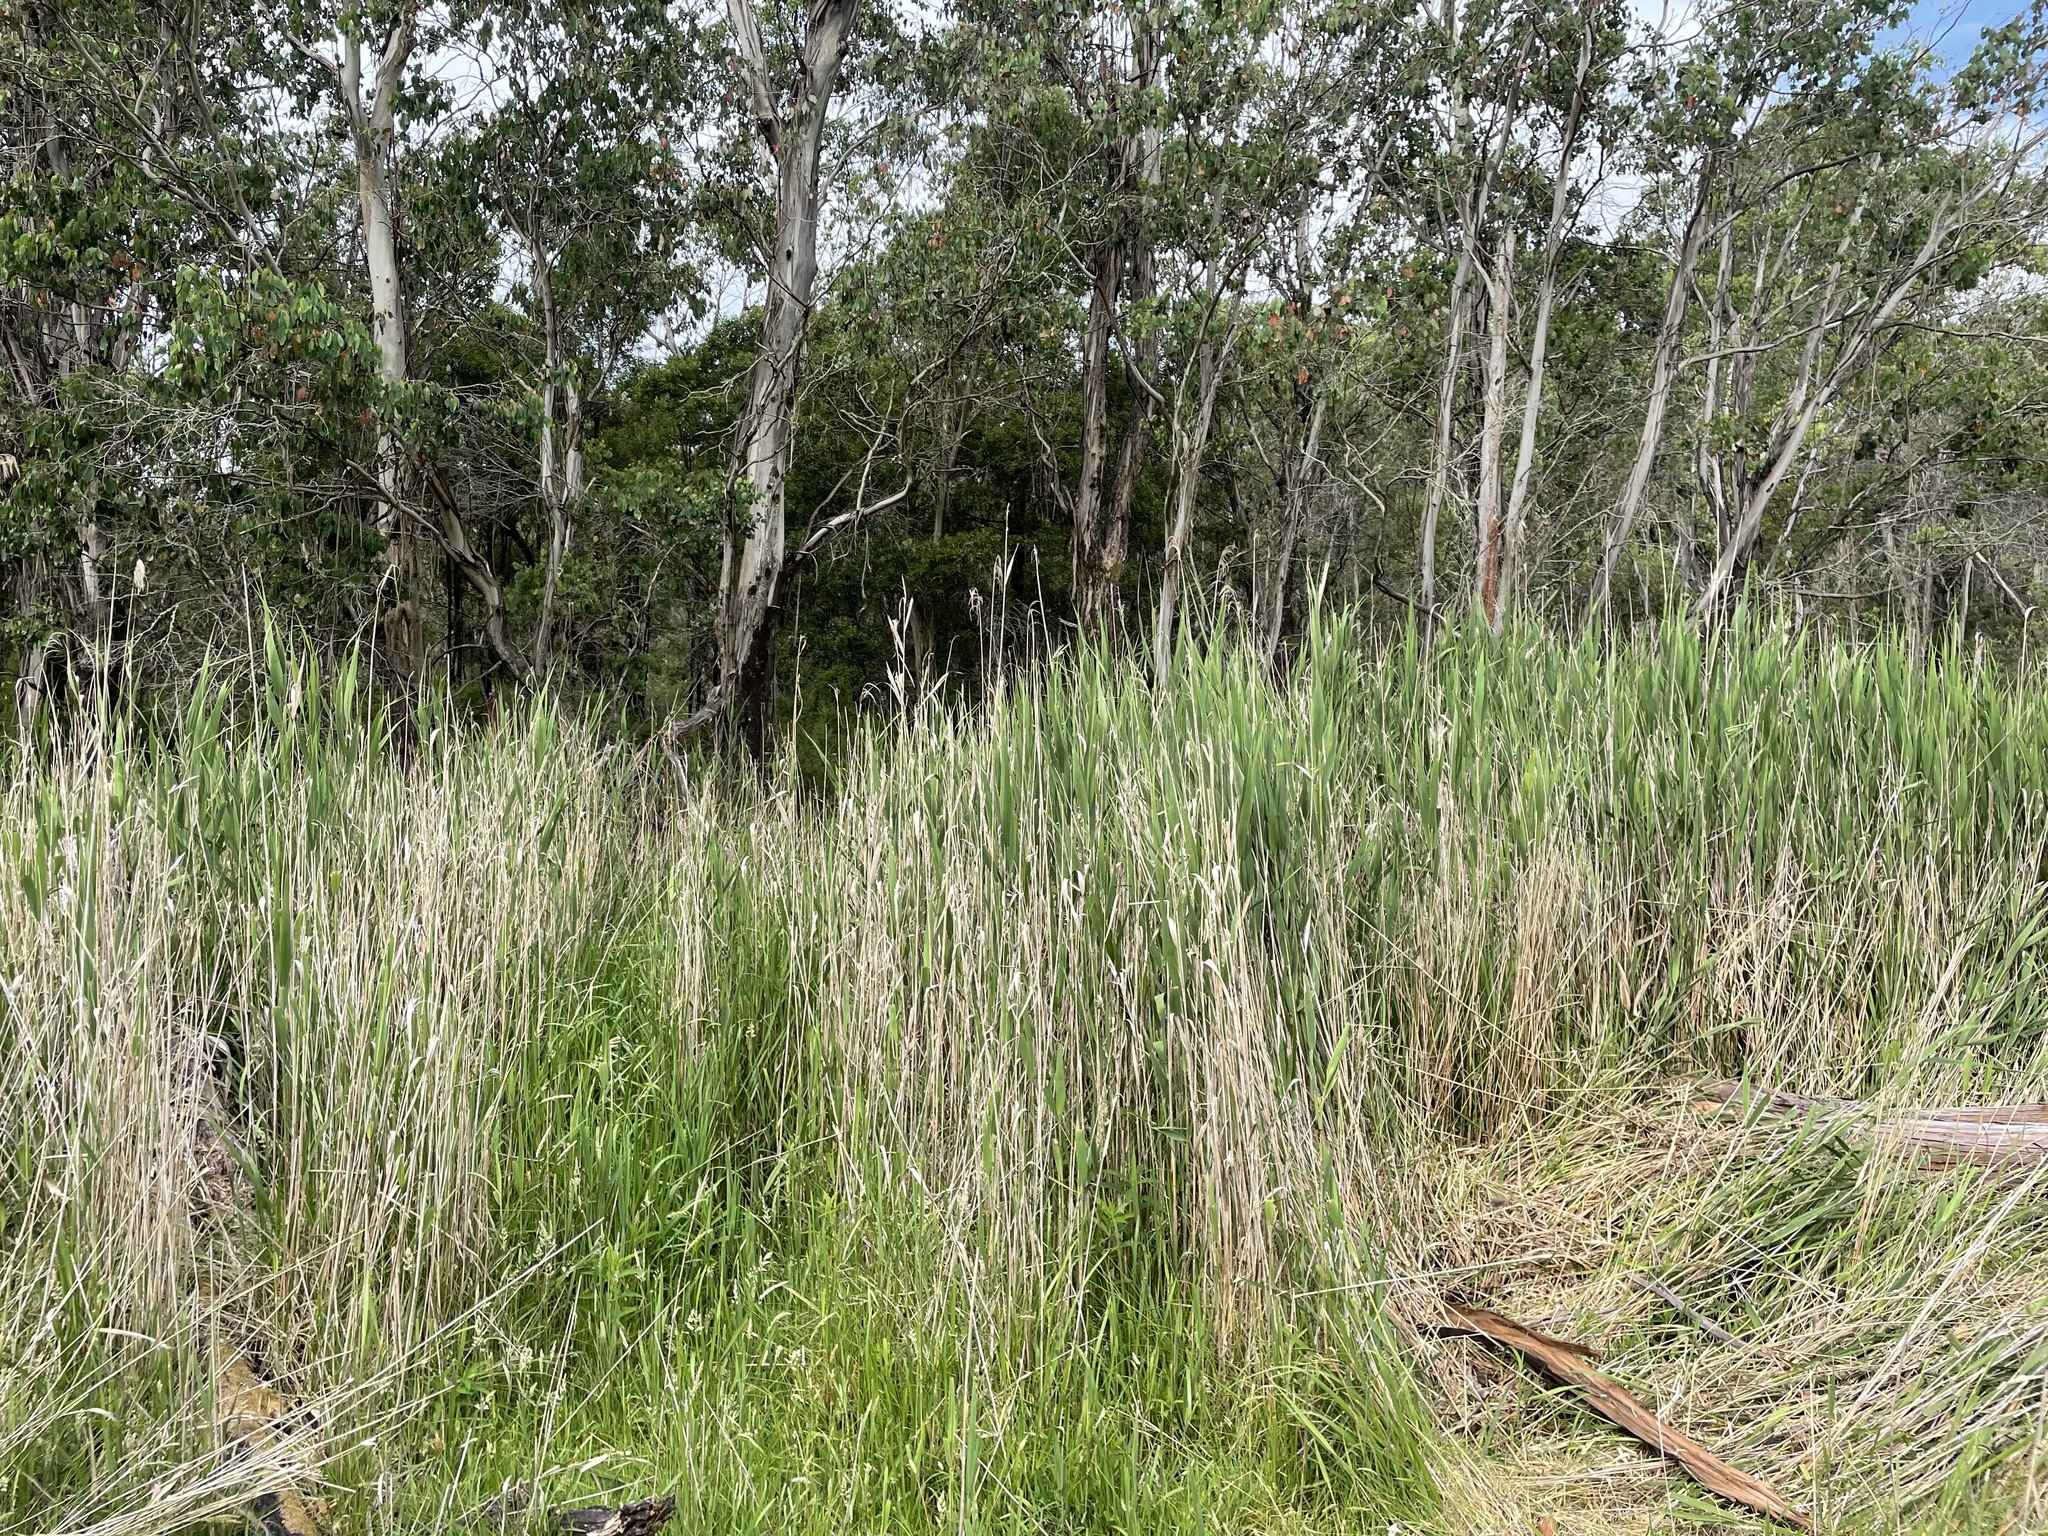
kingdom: Plantae
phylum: Tracheophyta
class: Liliopsida
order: Poales
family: Poaceae
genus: Phragmites
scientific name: Phragmites australis
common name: Common reed
